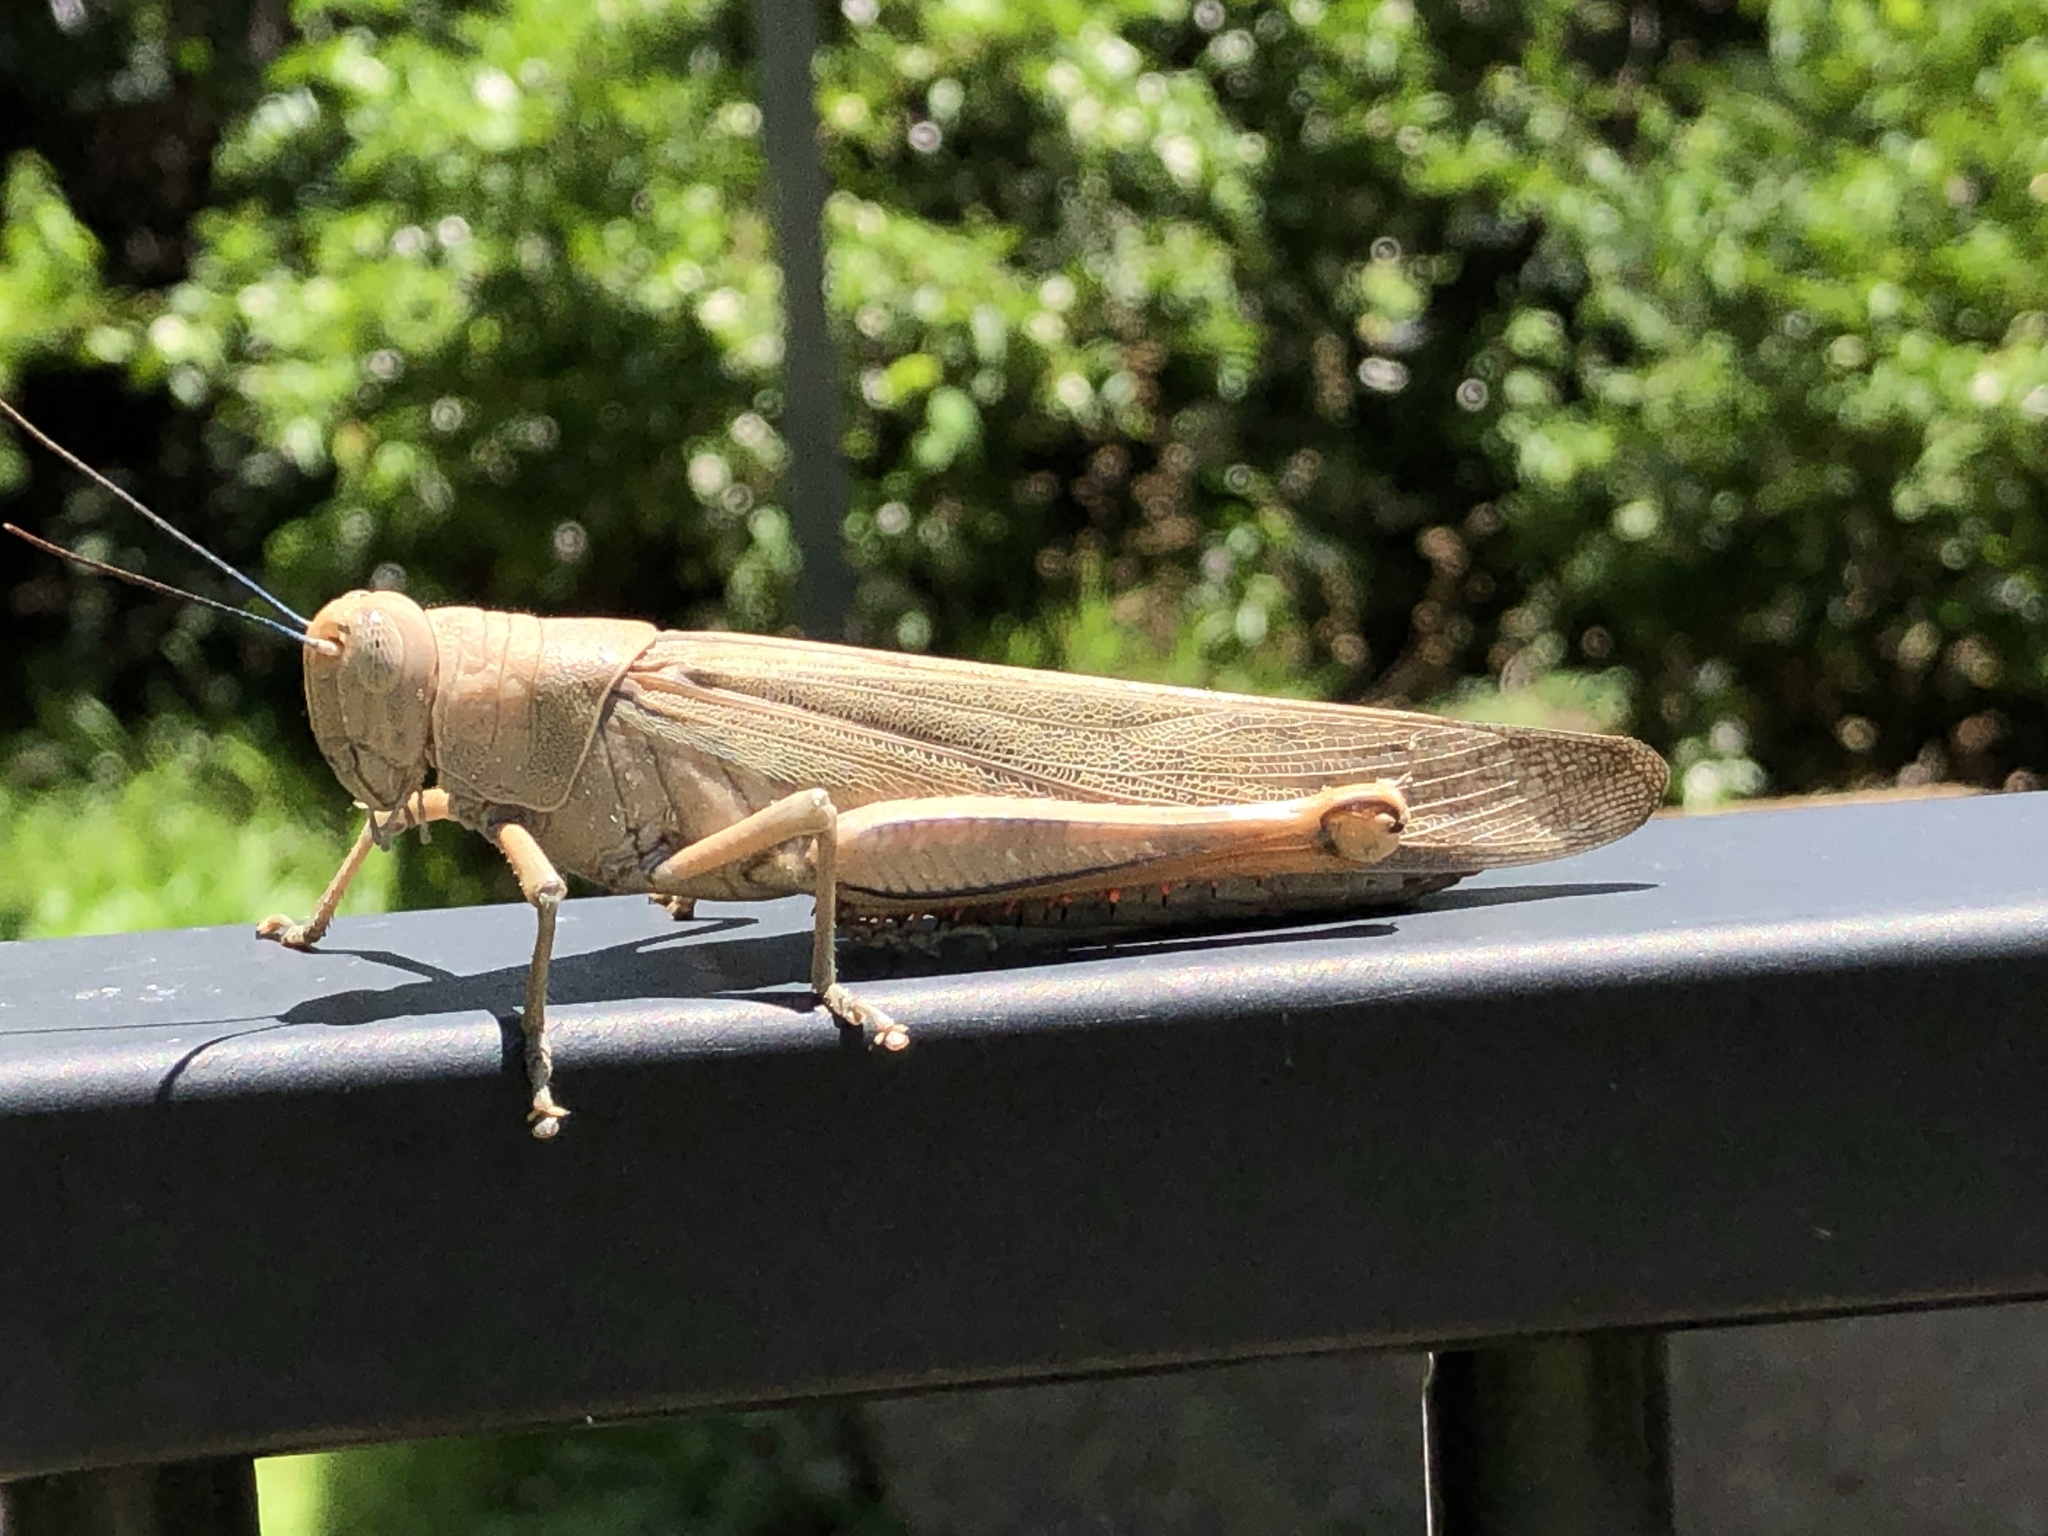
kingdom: Animalia
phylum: Arthropoda
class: Insecta
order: Orthoptera
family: Acrididae
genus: Valanga
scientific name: Valanga irregularis
